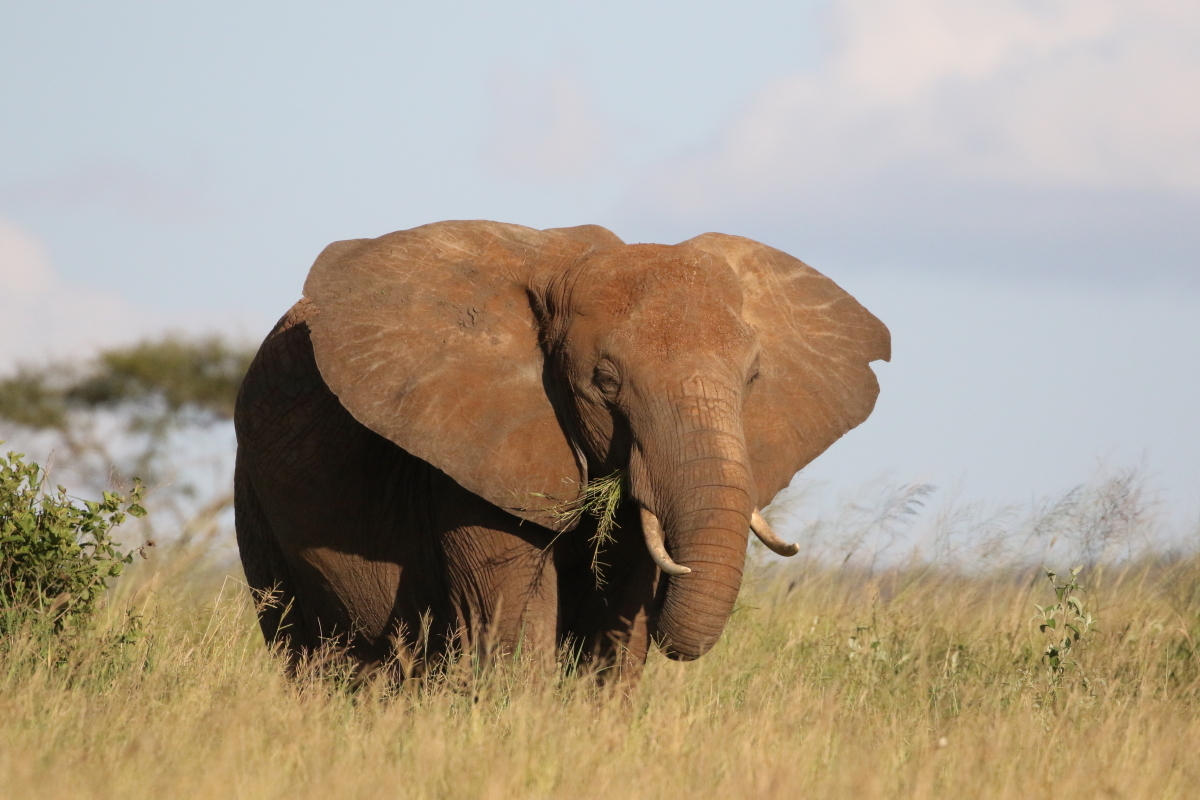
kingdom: Animalia
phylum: Chordata
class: Mammalia
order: Proboscidea
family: Elephantidae
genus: Loxodonta
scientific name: Loxodonta africana
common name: African elephant
